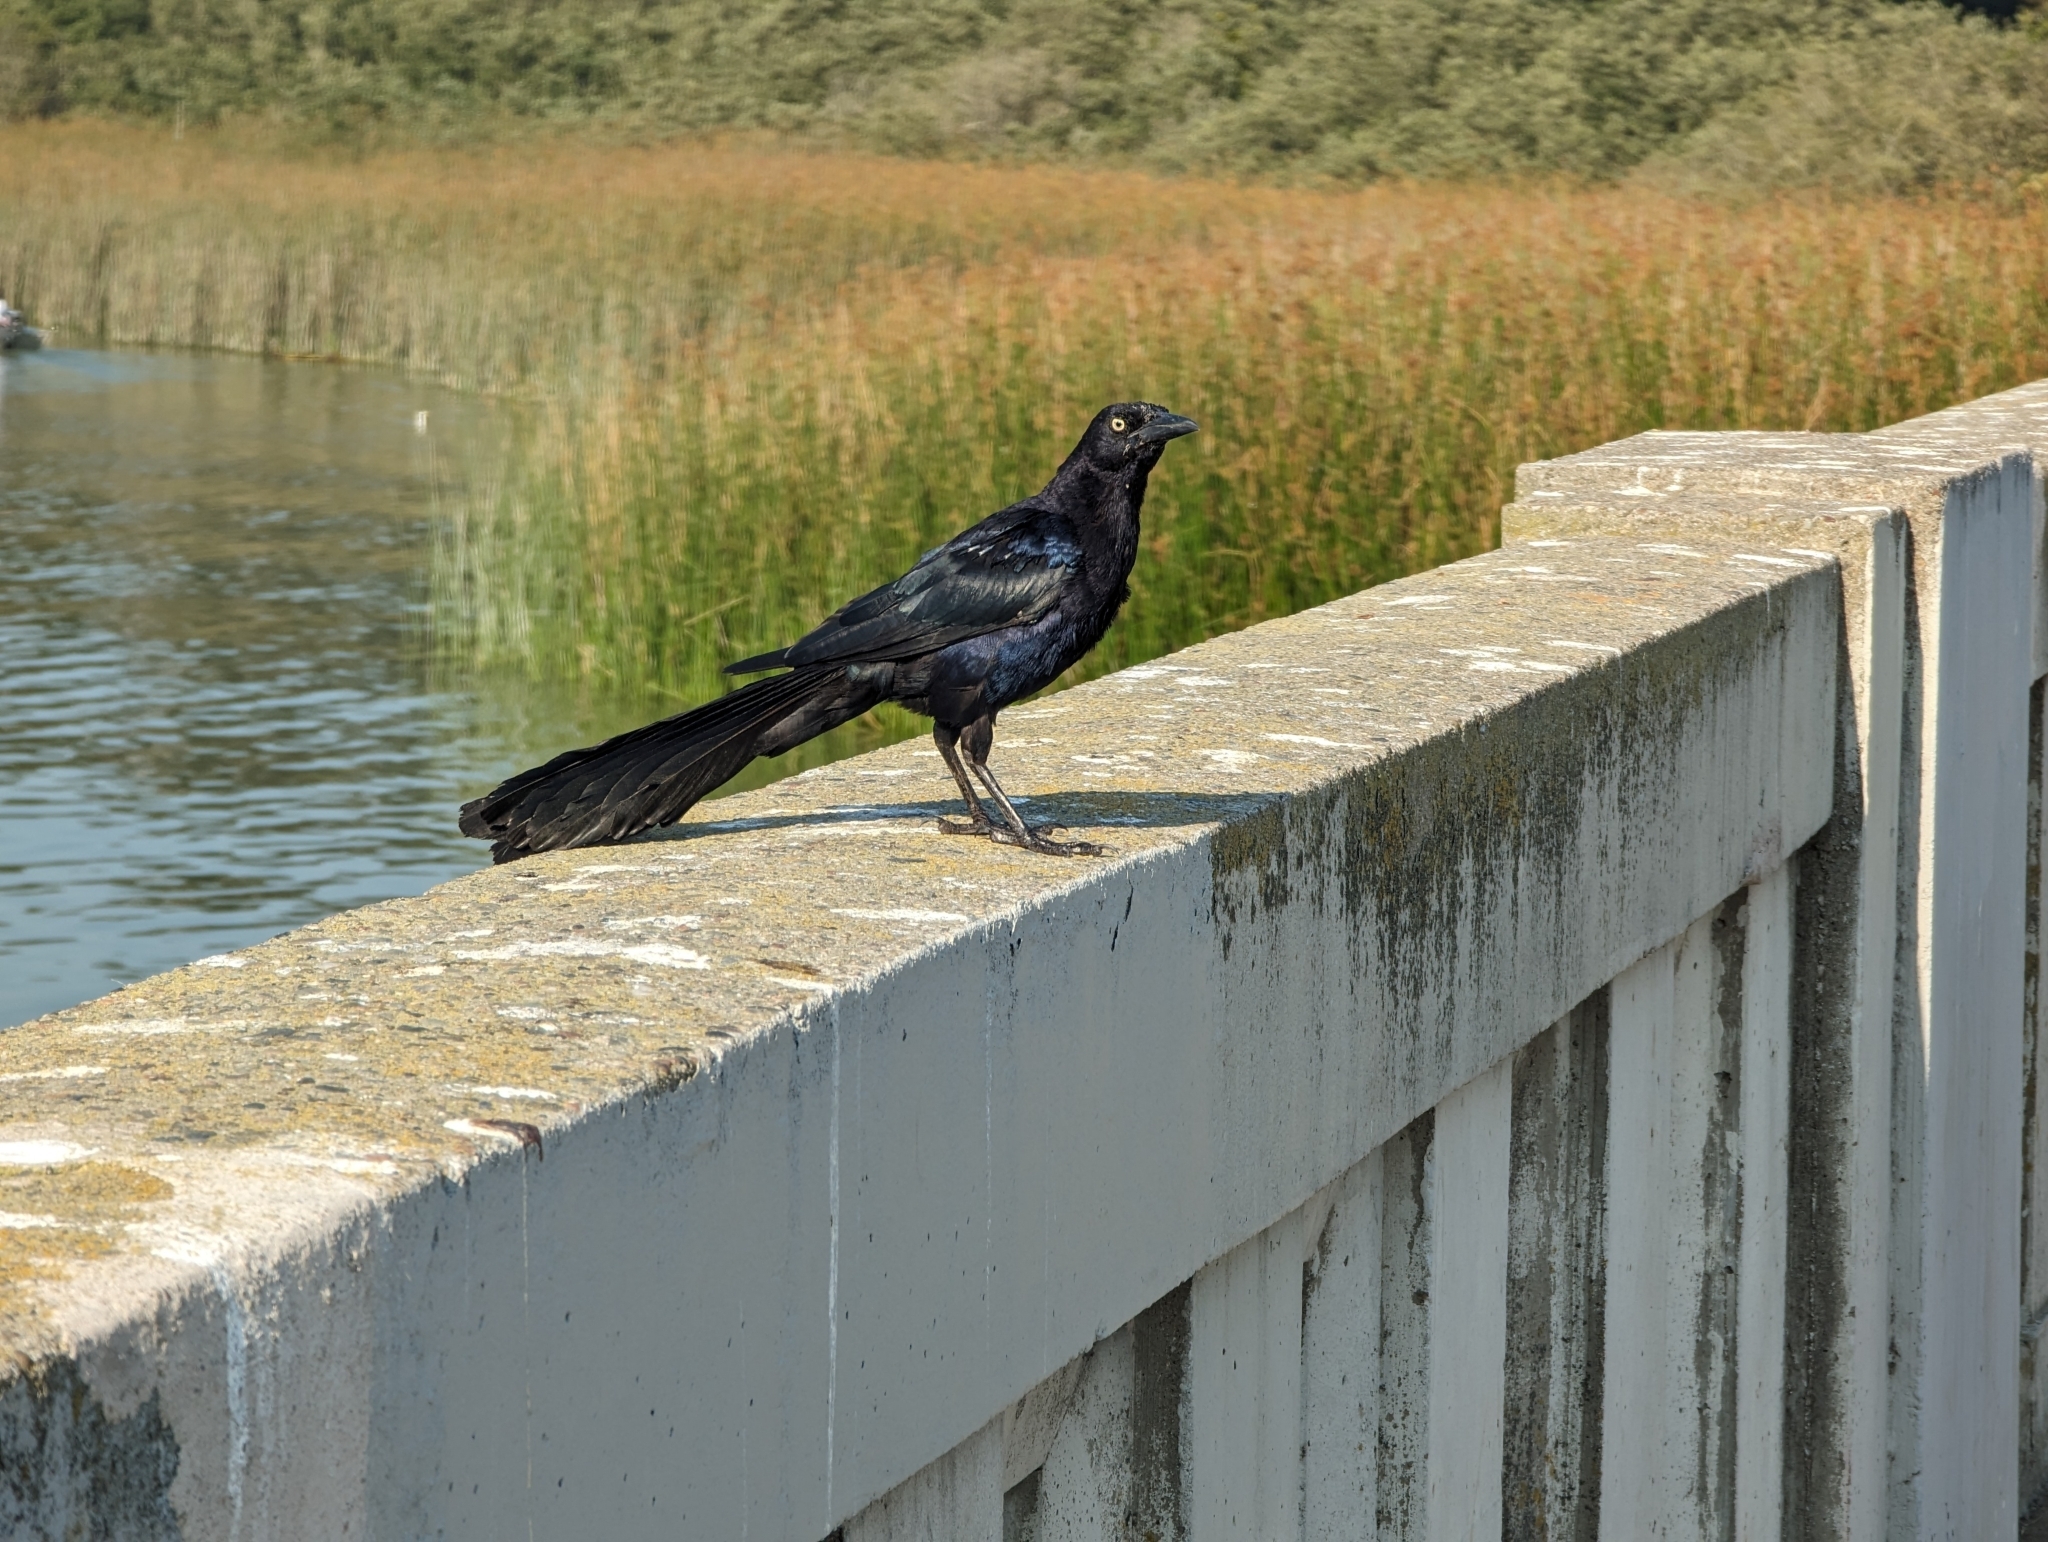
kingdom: Animalia
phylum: Chordata
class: Aves
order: Passeriformes
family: Icteridae
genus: Quiscalus
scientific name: Quiscalus mexicanus
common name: Great-tailed grackle
